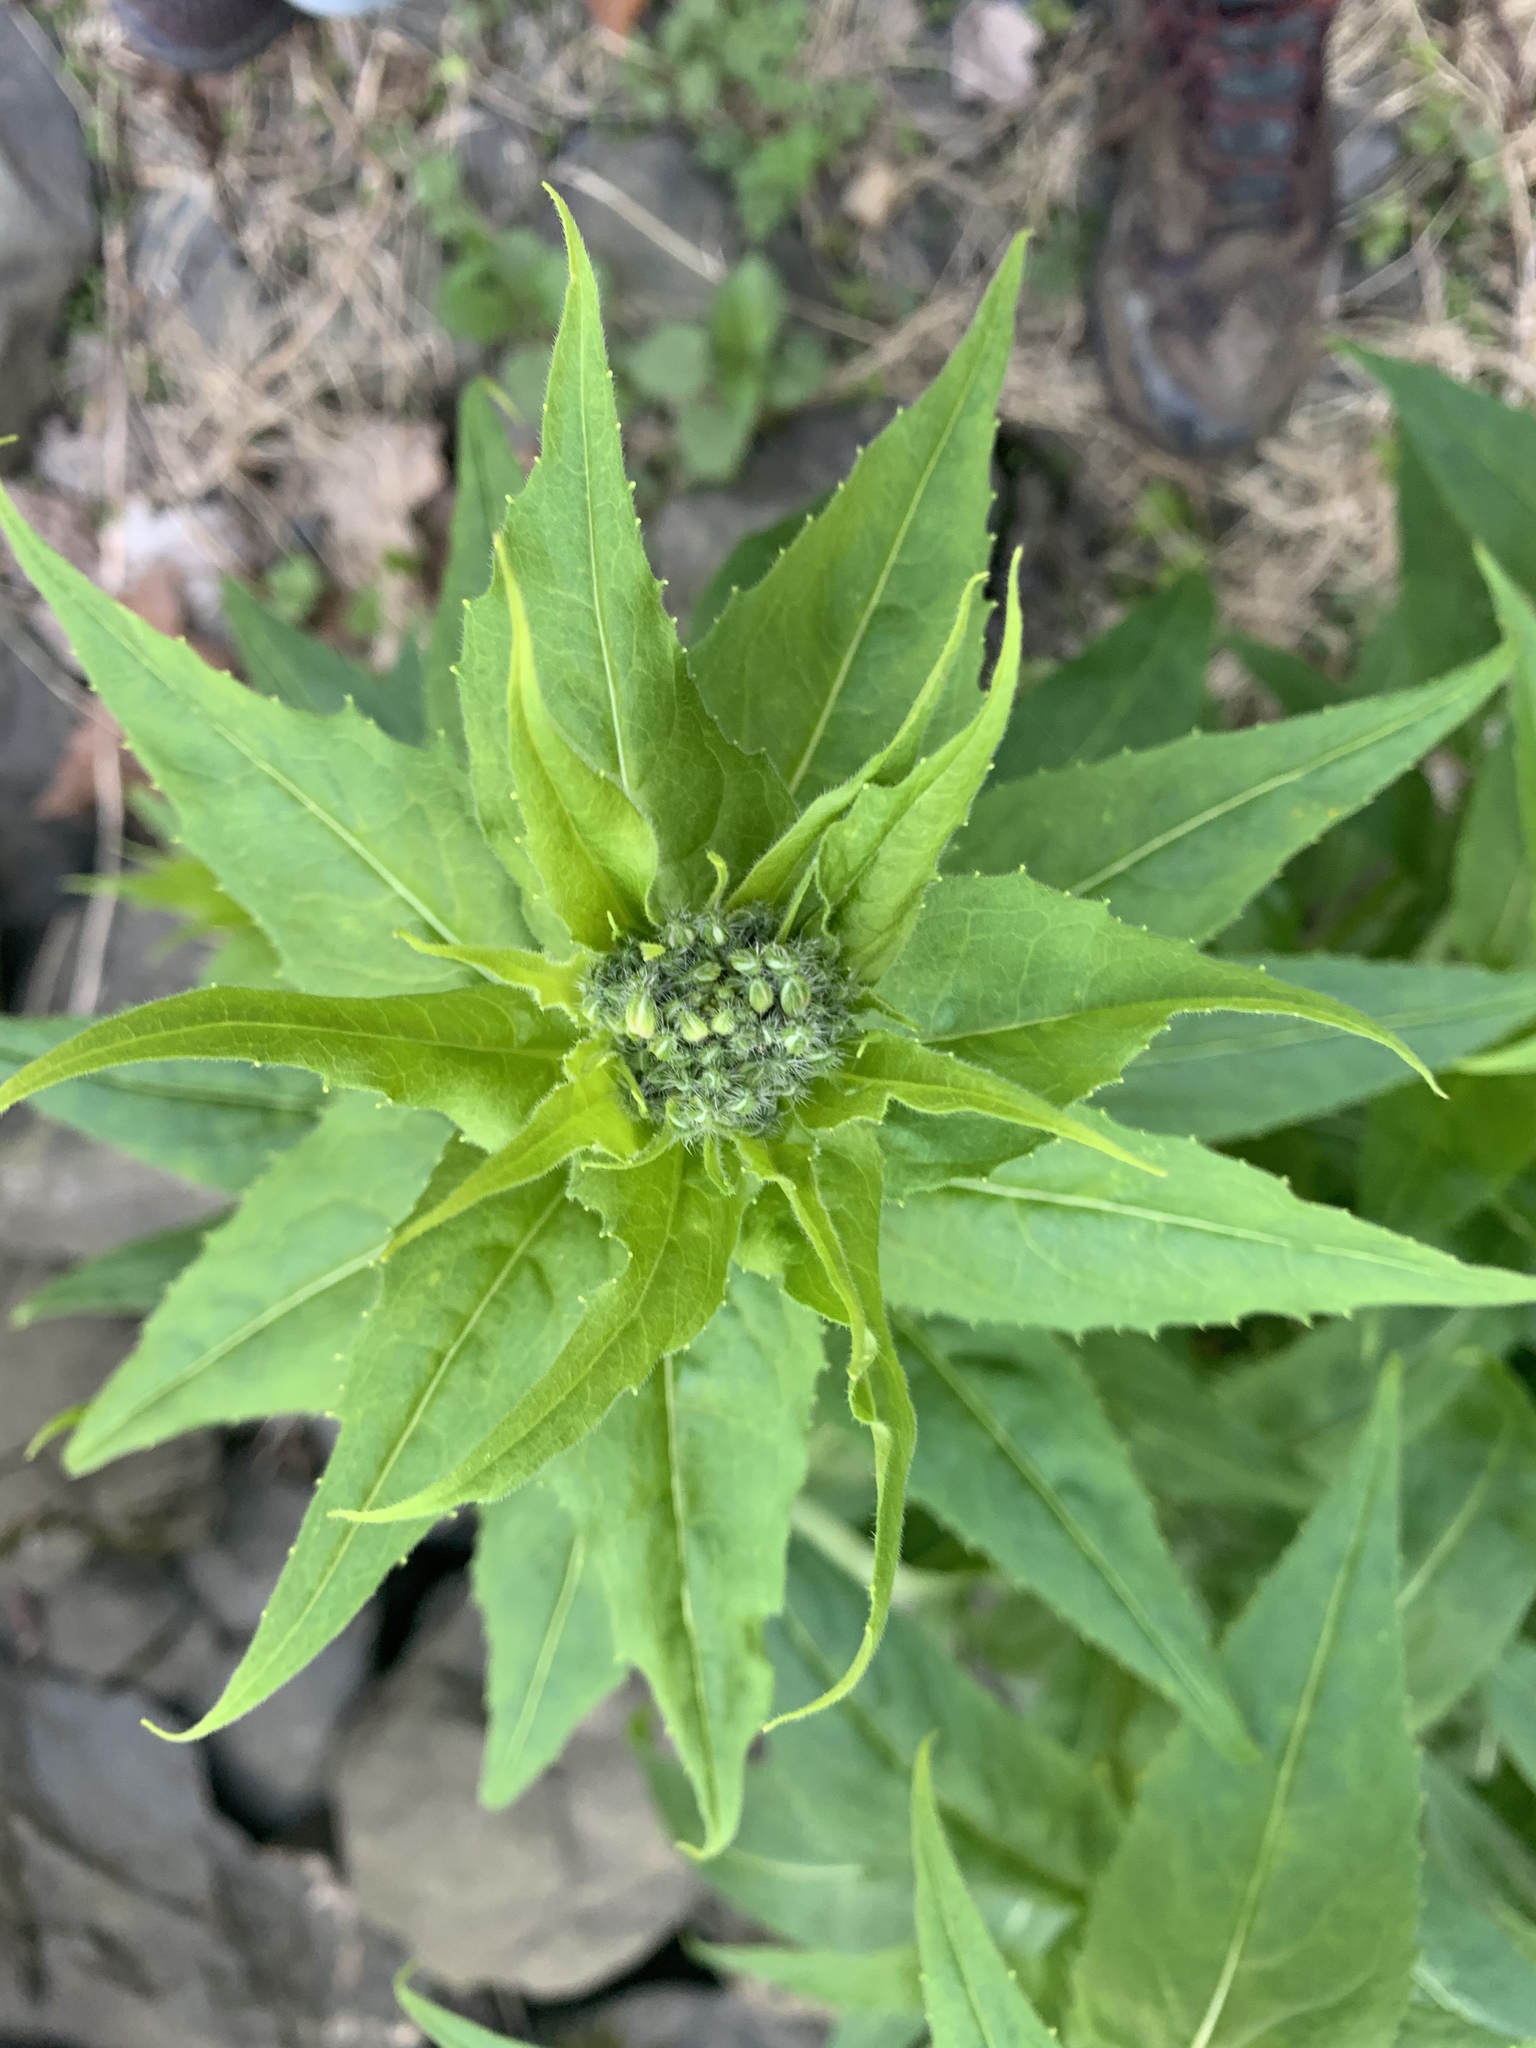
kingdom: Plantae
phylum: Tracheophyta
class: Magnoliopsida
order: Brassicales
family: Brassicaceae
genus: Hesperis
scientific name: Hesperis matronalis
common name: Dame's-violet
